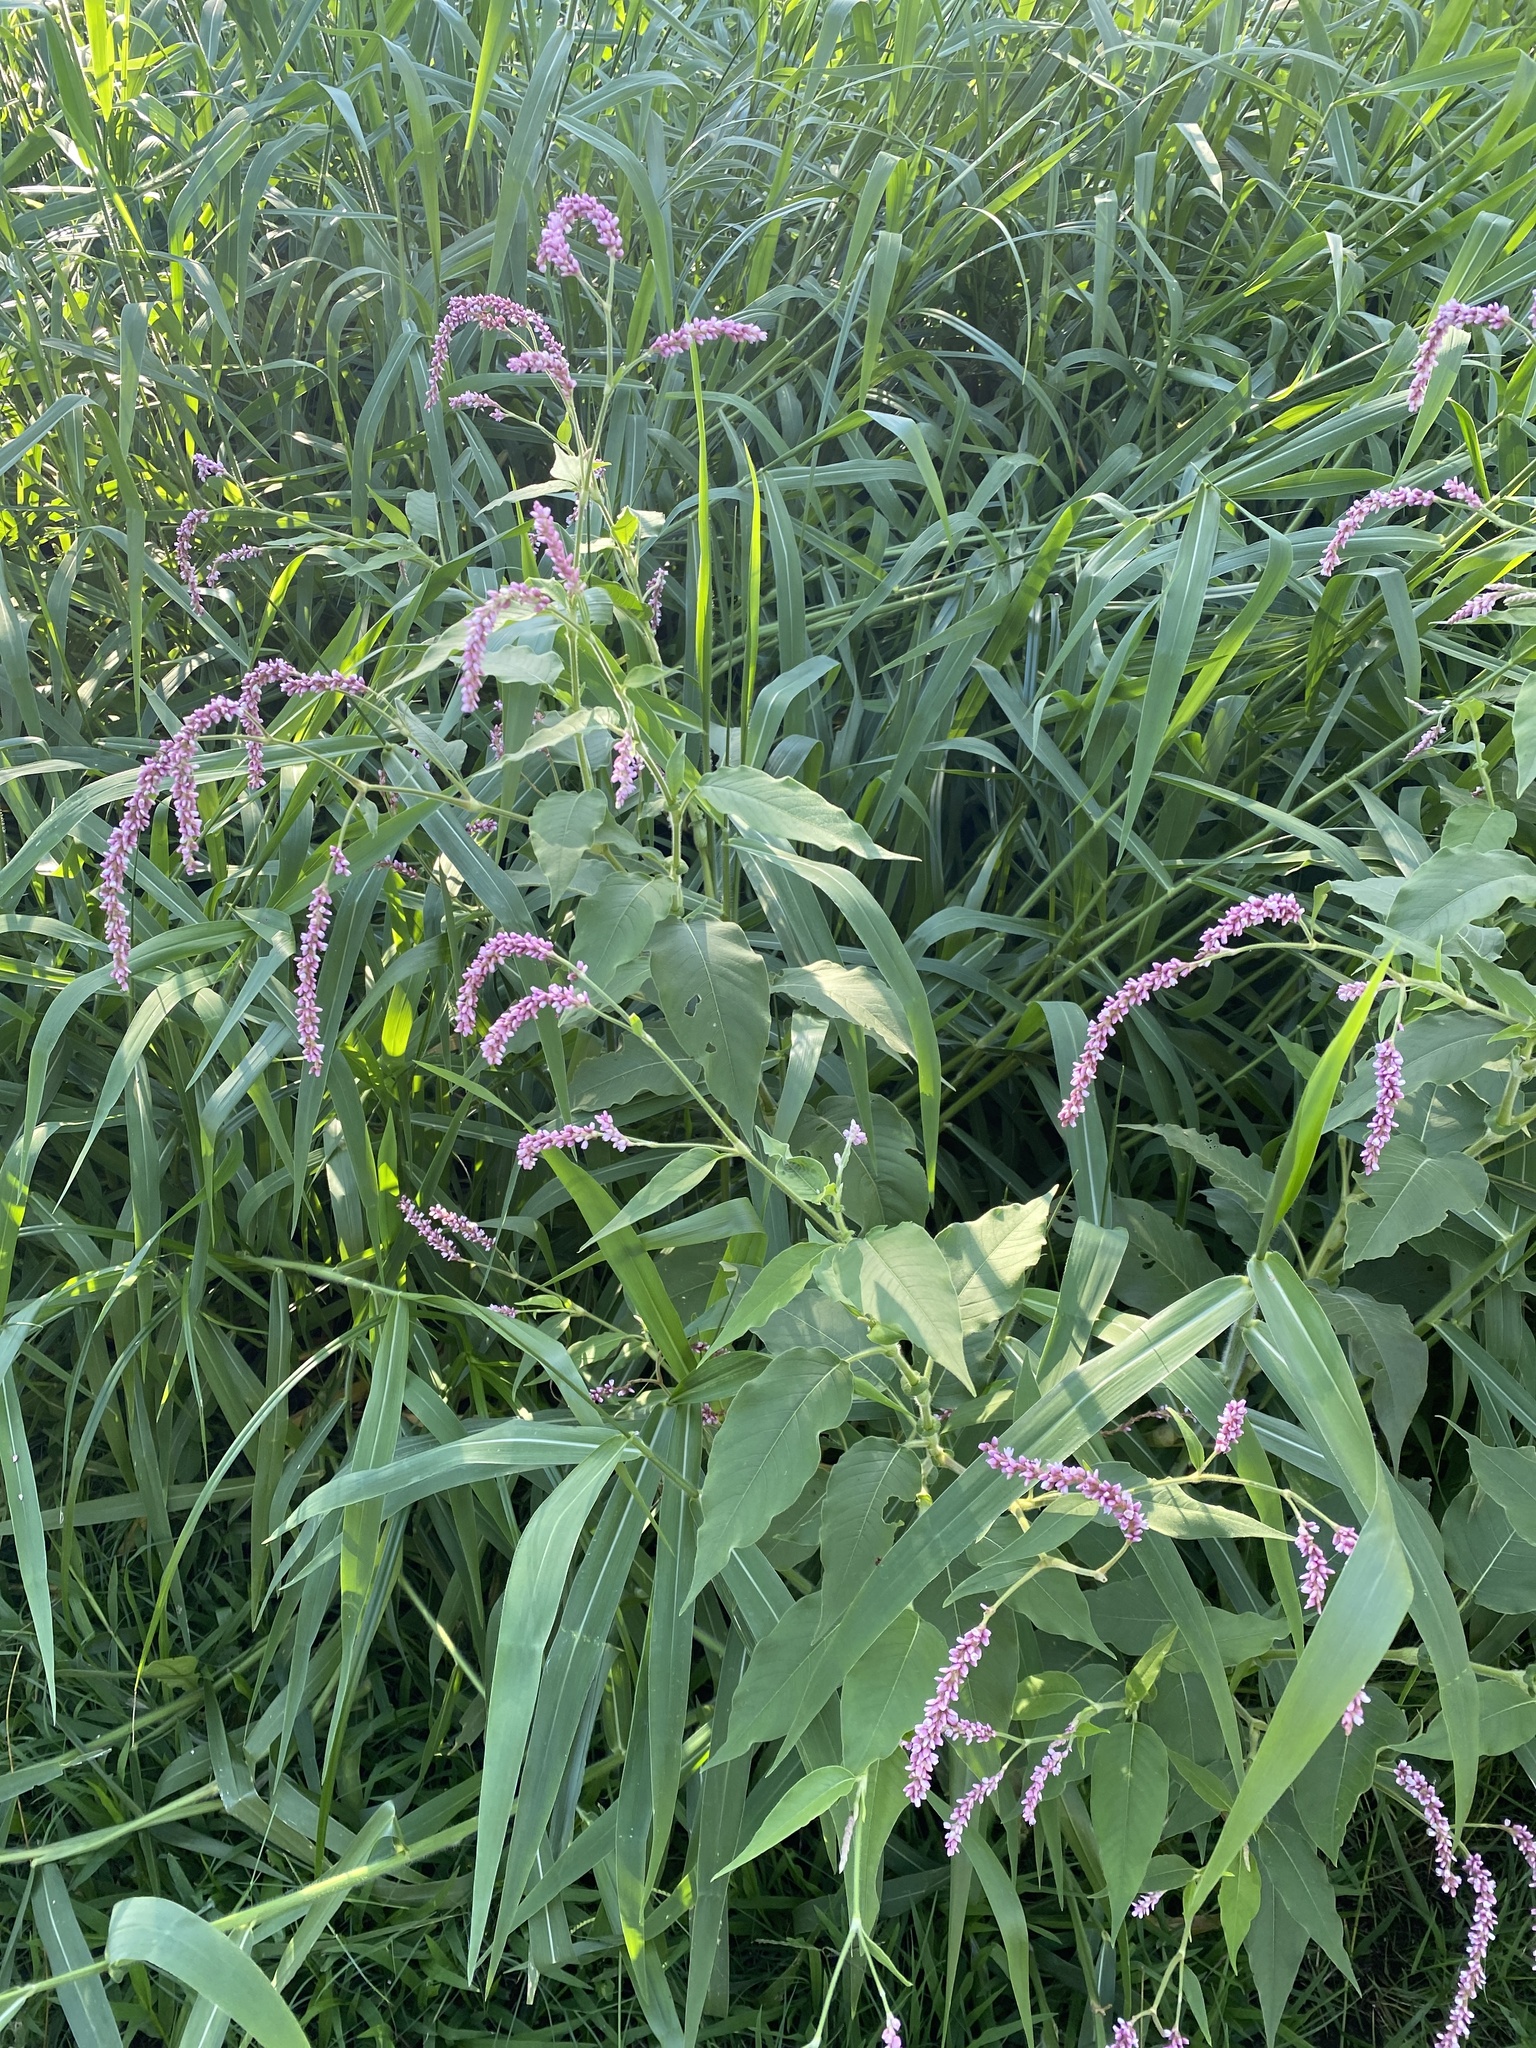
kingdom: Plantae
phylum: Tracheophyta
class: Magnoliopsida
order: Caryophyllales
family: Polygonaceae
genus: Persicaria
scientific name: Persicaria orientalis
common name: Kiss-me-over-the-garden-gate
